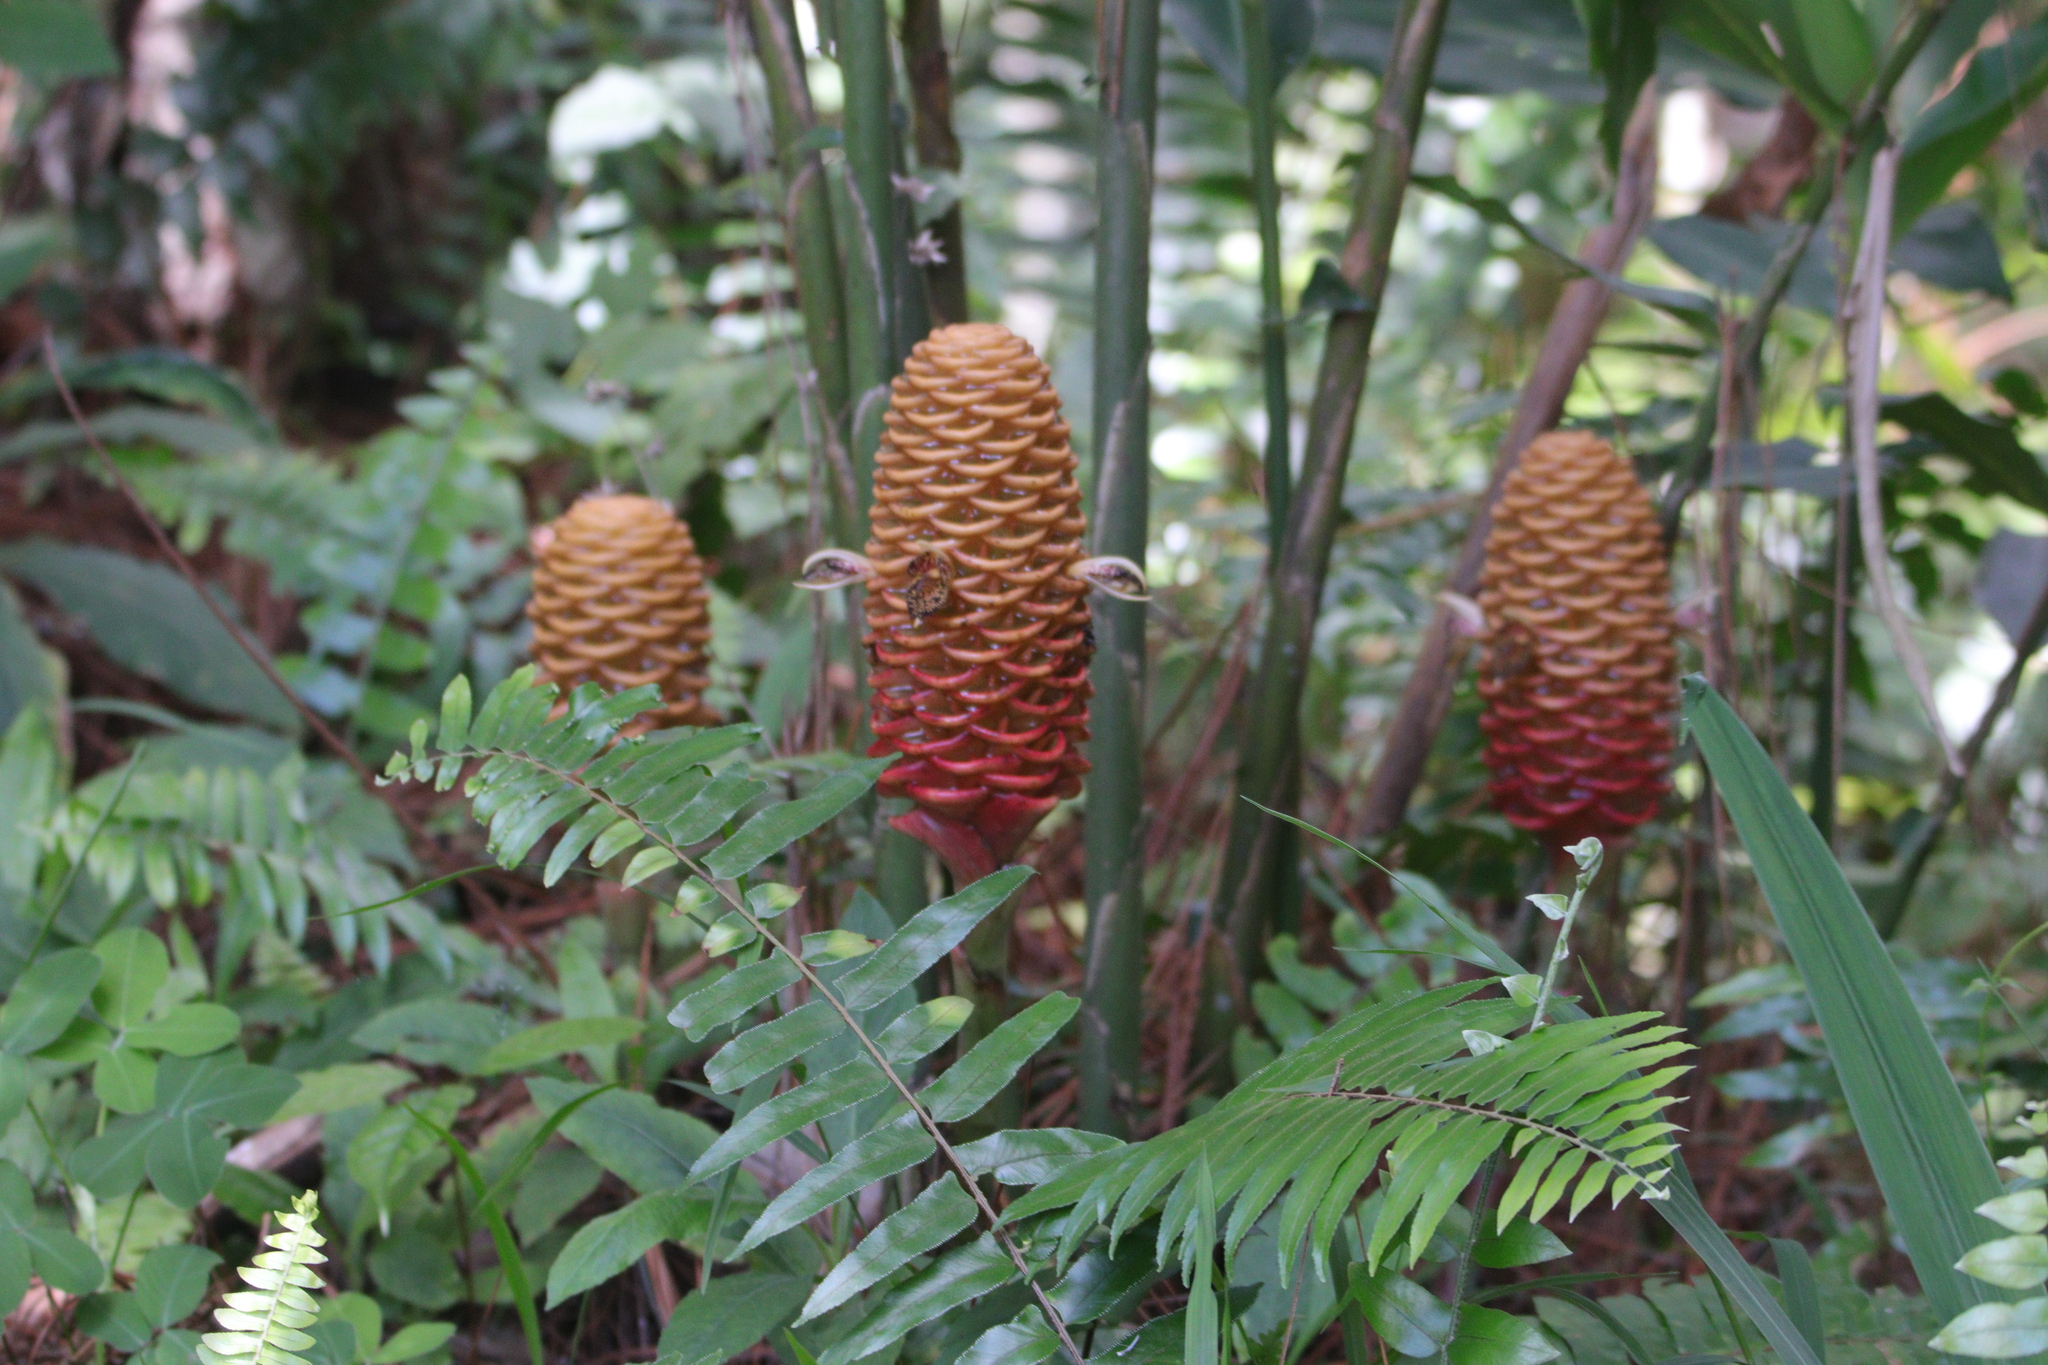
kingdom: Plantae
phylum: Tracheophyta
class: Liliopsida
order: Zingiberales
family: Zingiberaceae
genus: Zingiber
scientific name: Zingiber spectabile
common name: Beehive ginger
